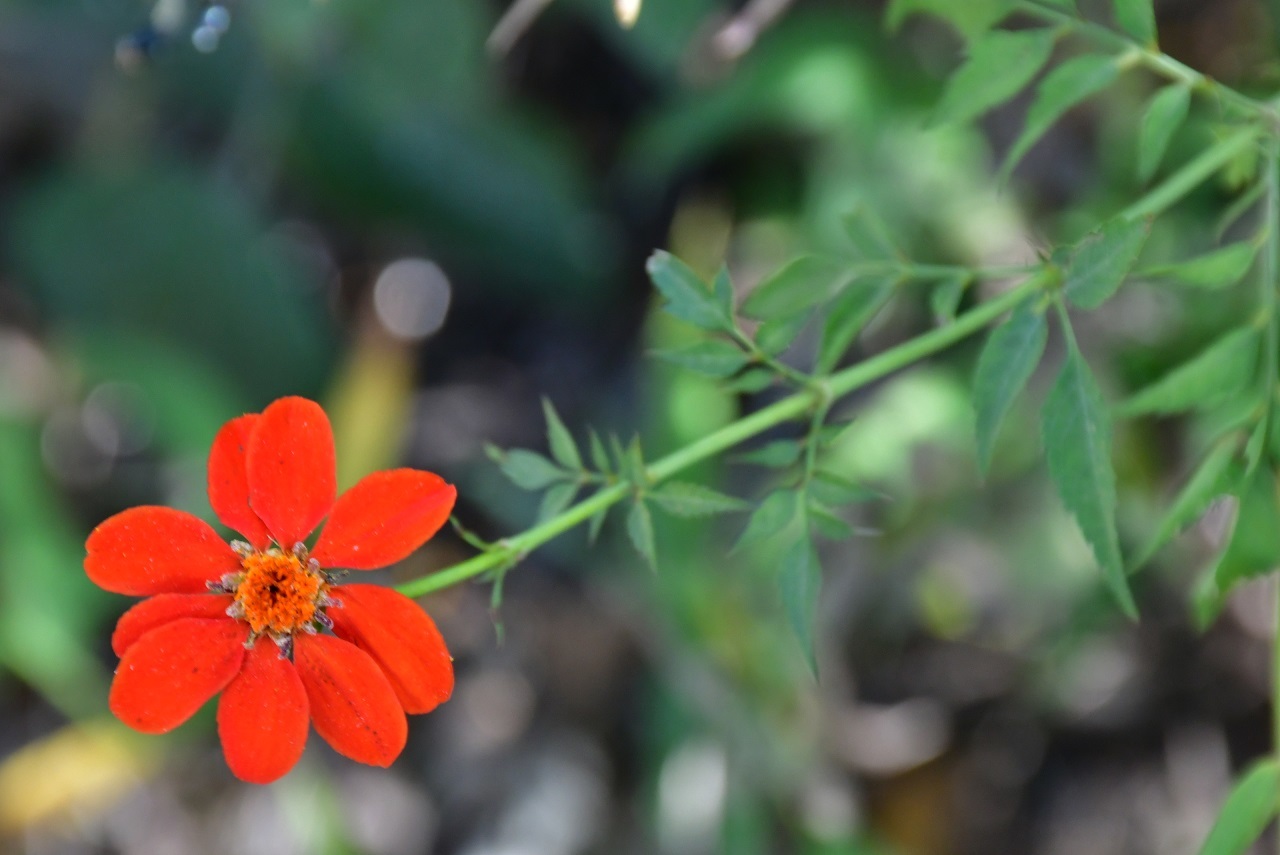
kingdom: Plantae
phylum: Tracheophyta
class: Magnoliopsida
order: Asterales
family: Asteraceae
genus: Adenophyllum
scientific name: Adenophyllum aurantium
